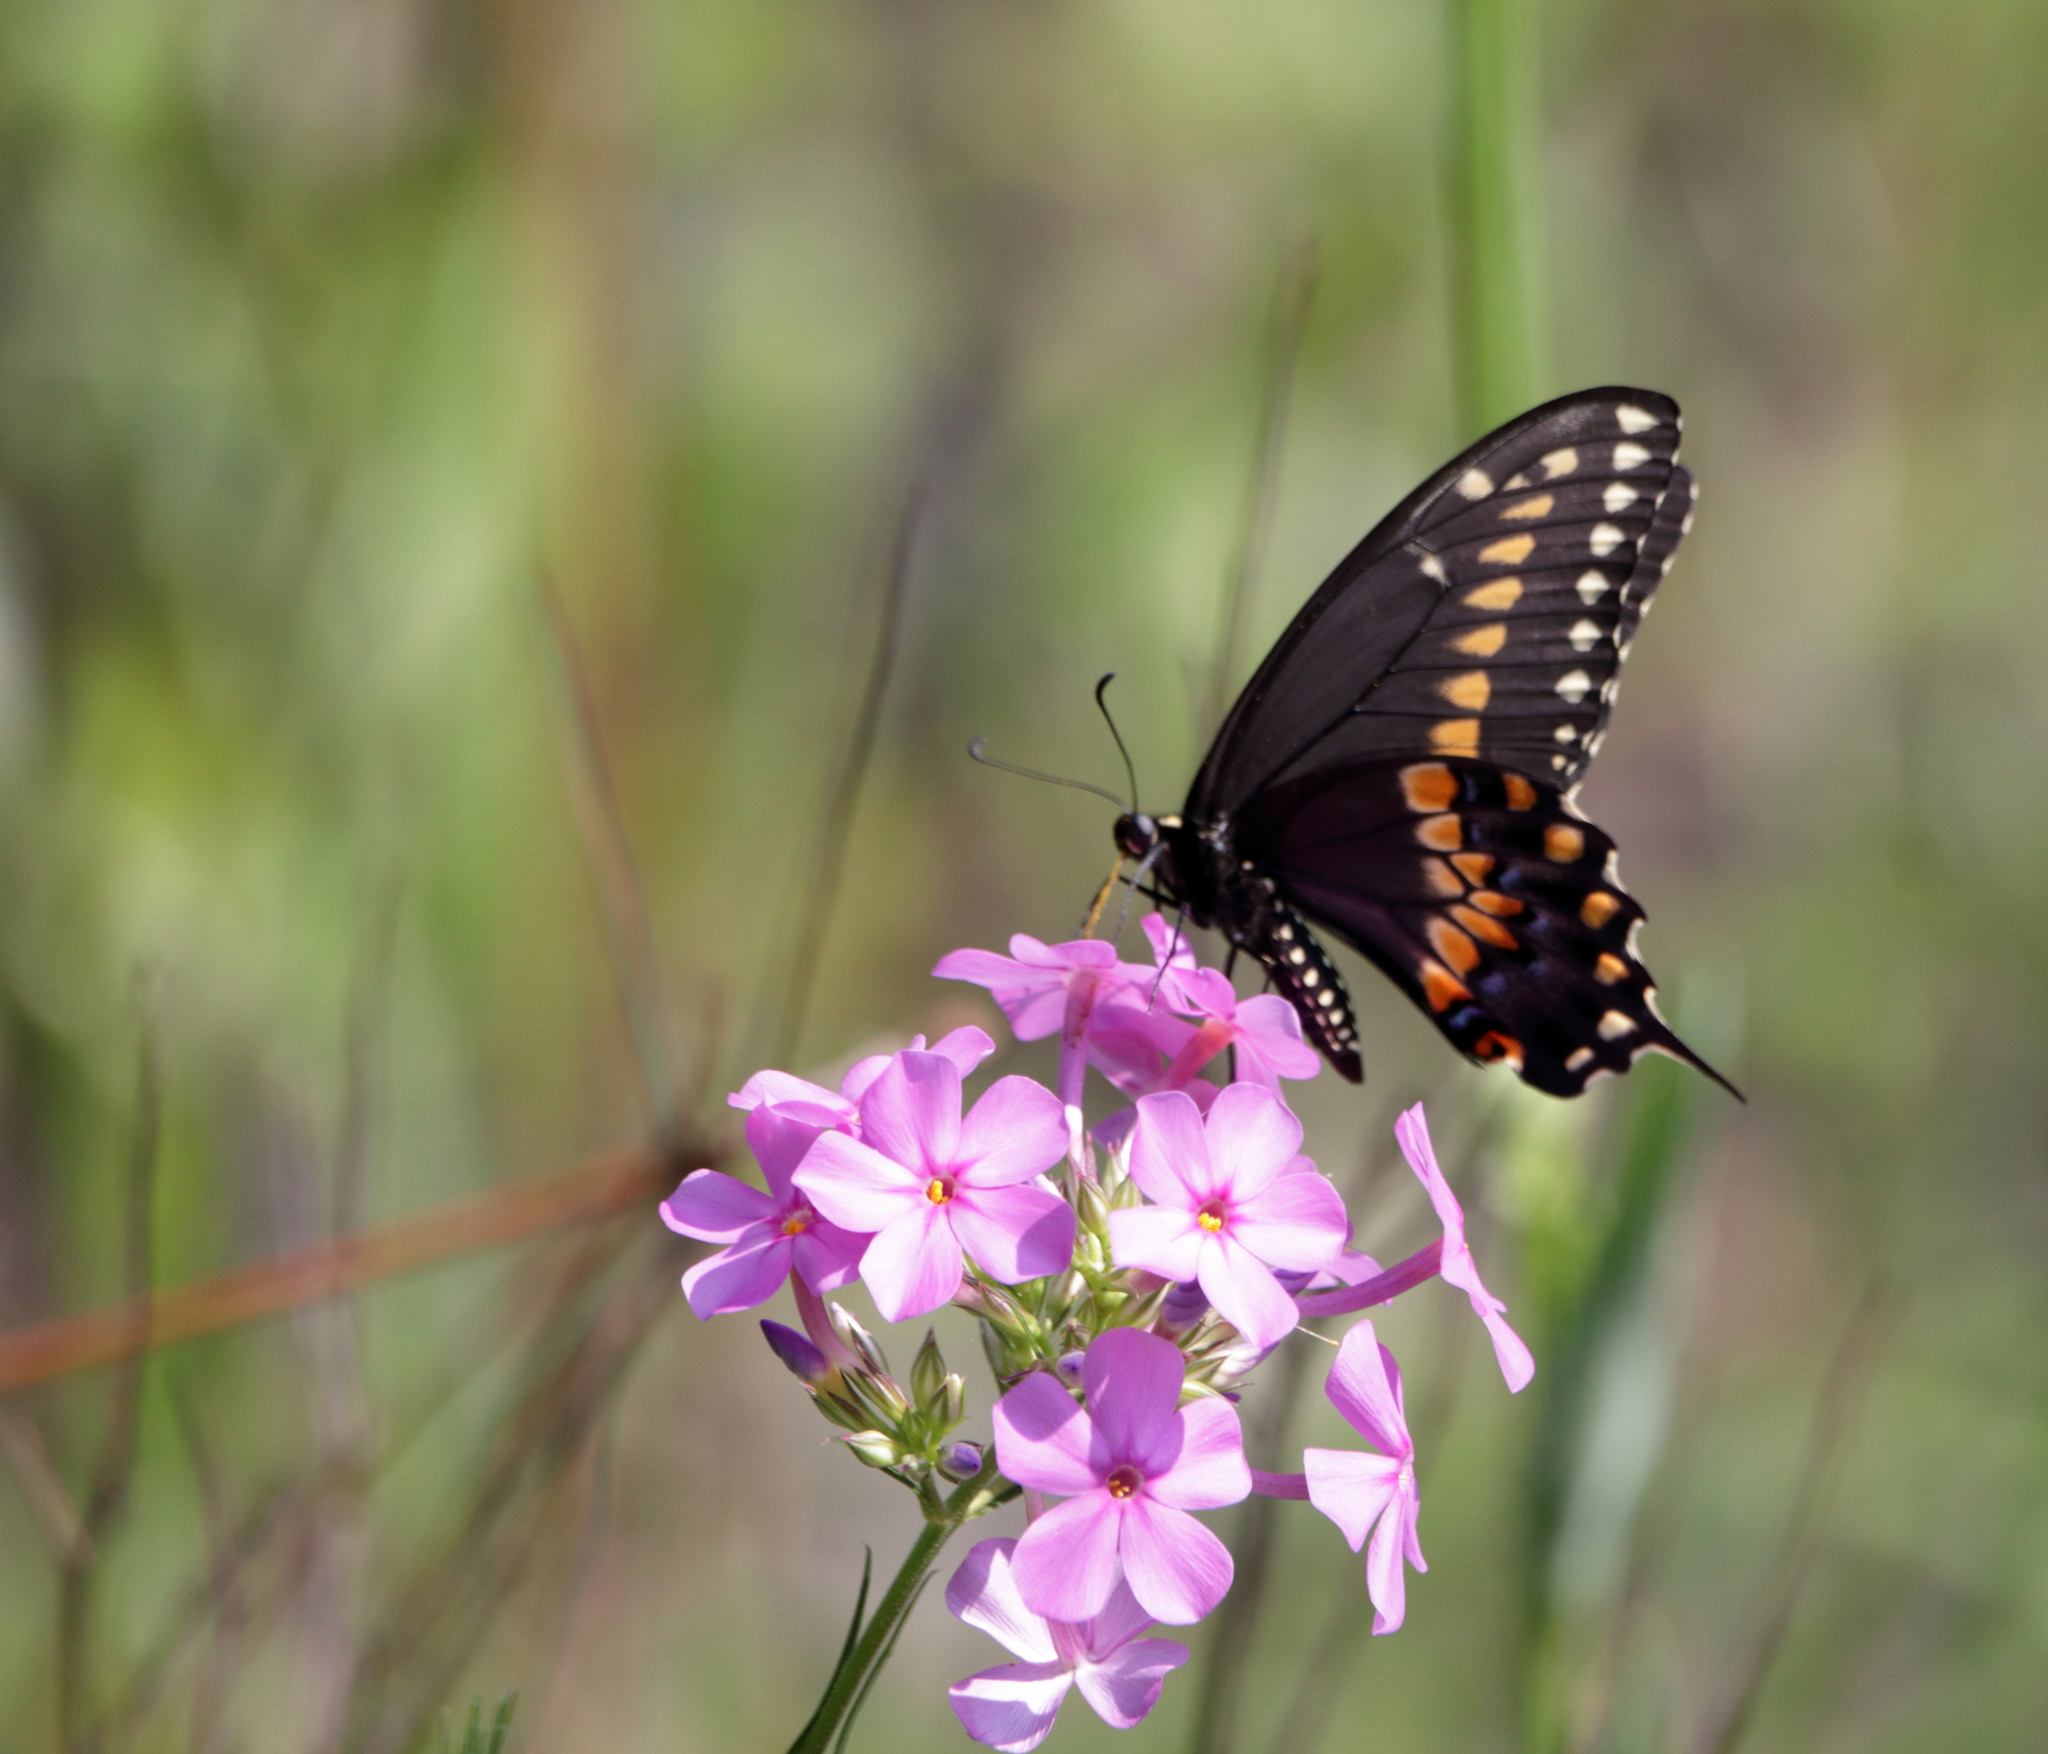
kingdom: Animalia
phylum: Arthropoda
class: Insecta
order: Lepidoptera
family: Papilionidae
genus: Papilio
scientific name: Papilio polyxenes
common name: Black swallowtail
